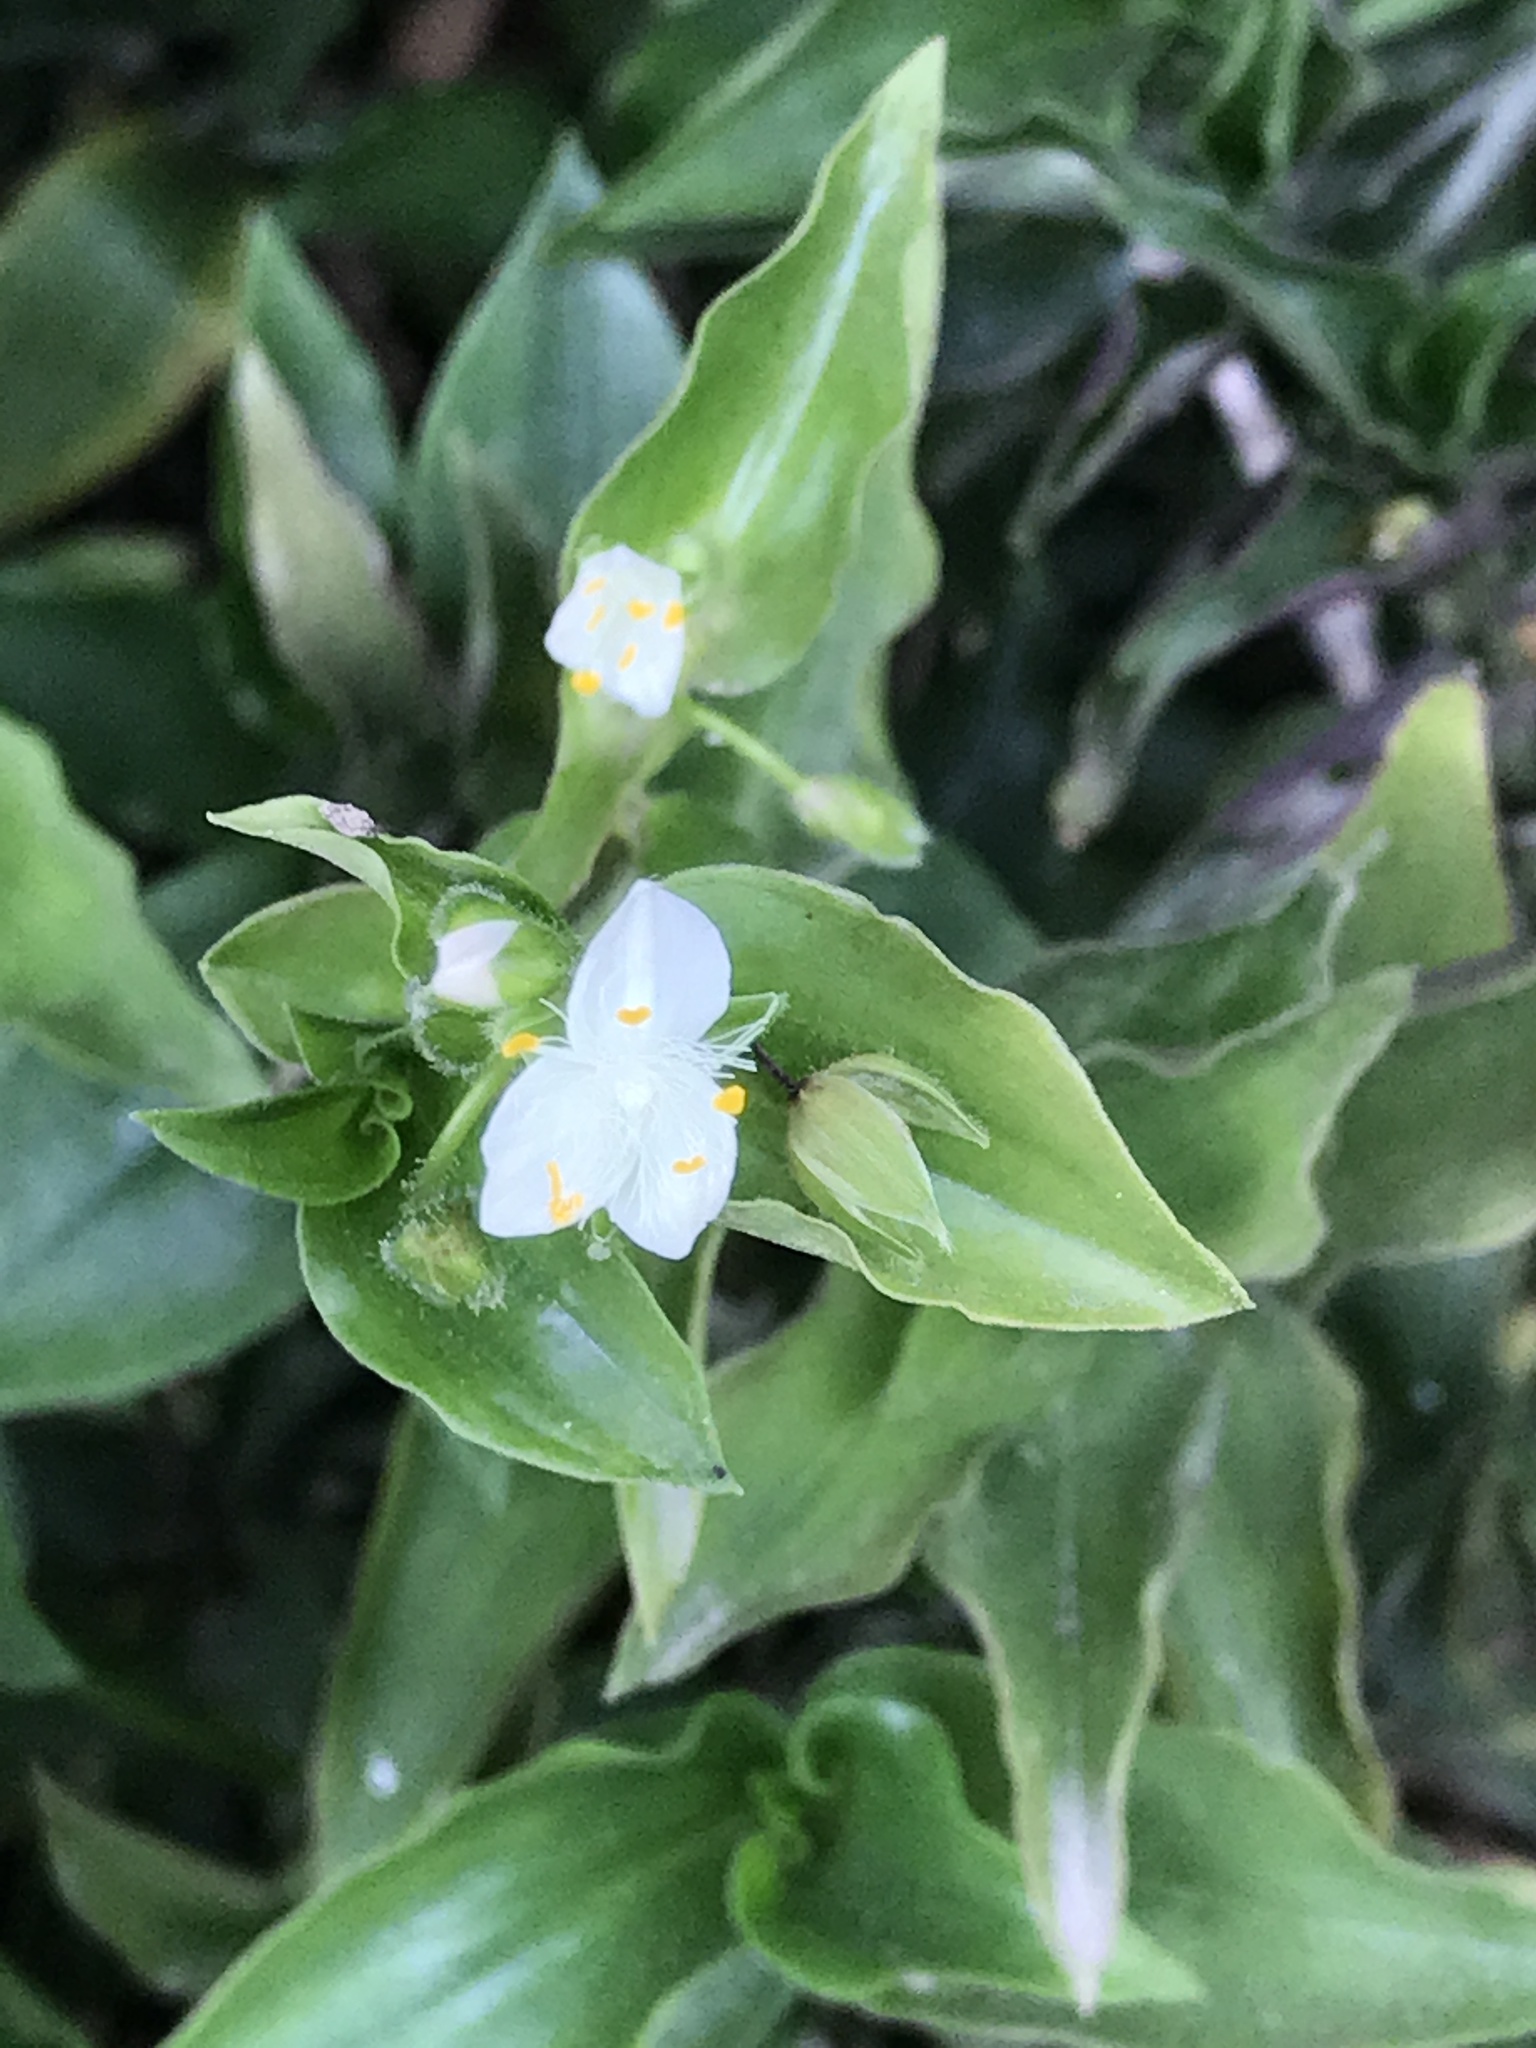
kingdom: Plantae
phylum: Tracheophyta
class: Liliopsida
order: Commelinales
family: Commelinaceae
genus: Tradescantia
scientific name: Tradescantia fluminensis
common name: Wandering-jew
